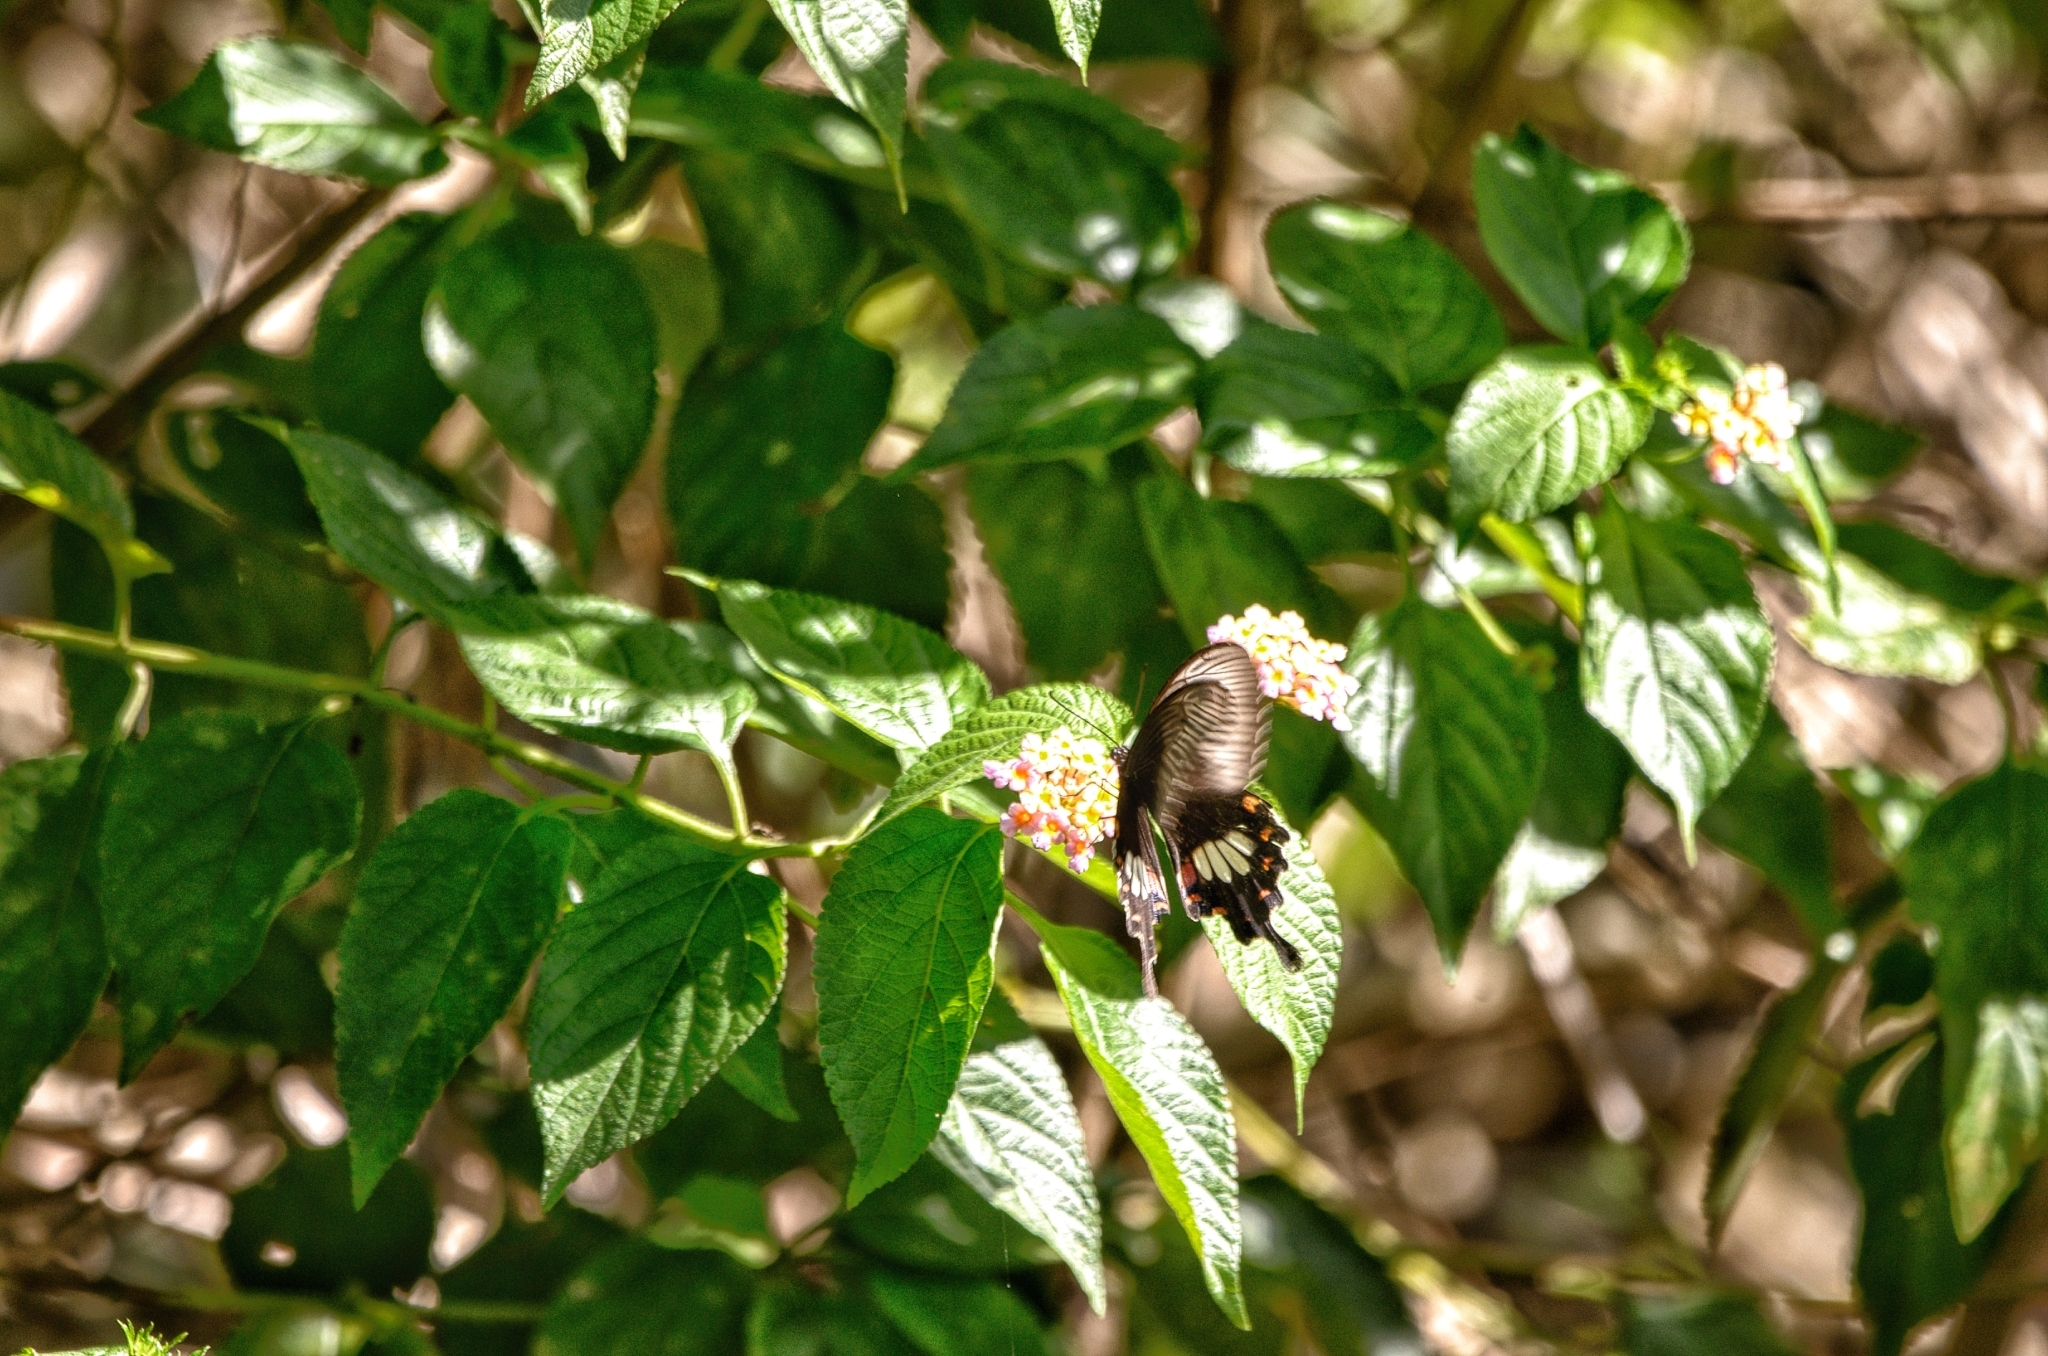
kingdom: Animalia
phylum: Arthropoda
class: Insecta
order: Lepidoptera
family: Papilionidae
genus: Pachliopta
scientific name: Pachliopta aristolochiae
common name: Common rose
